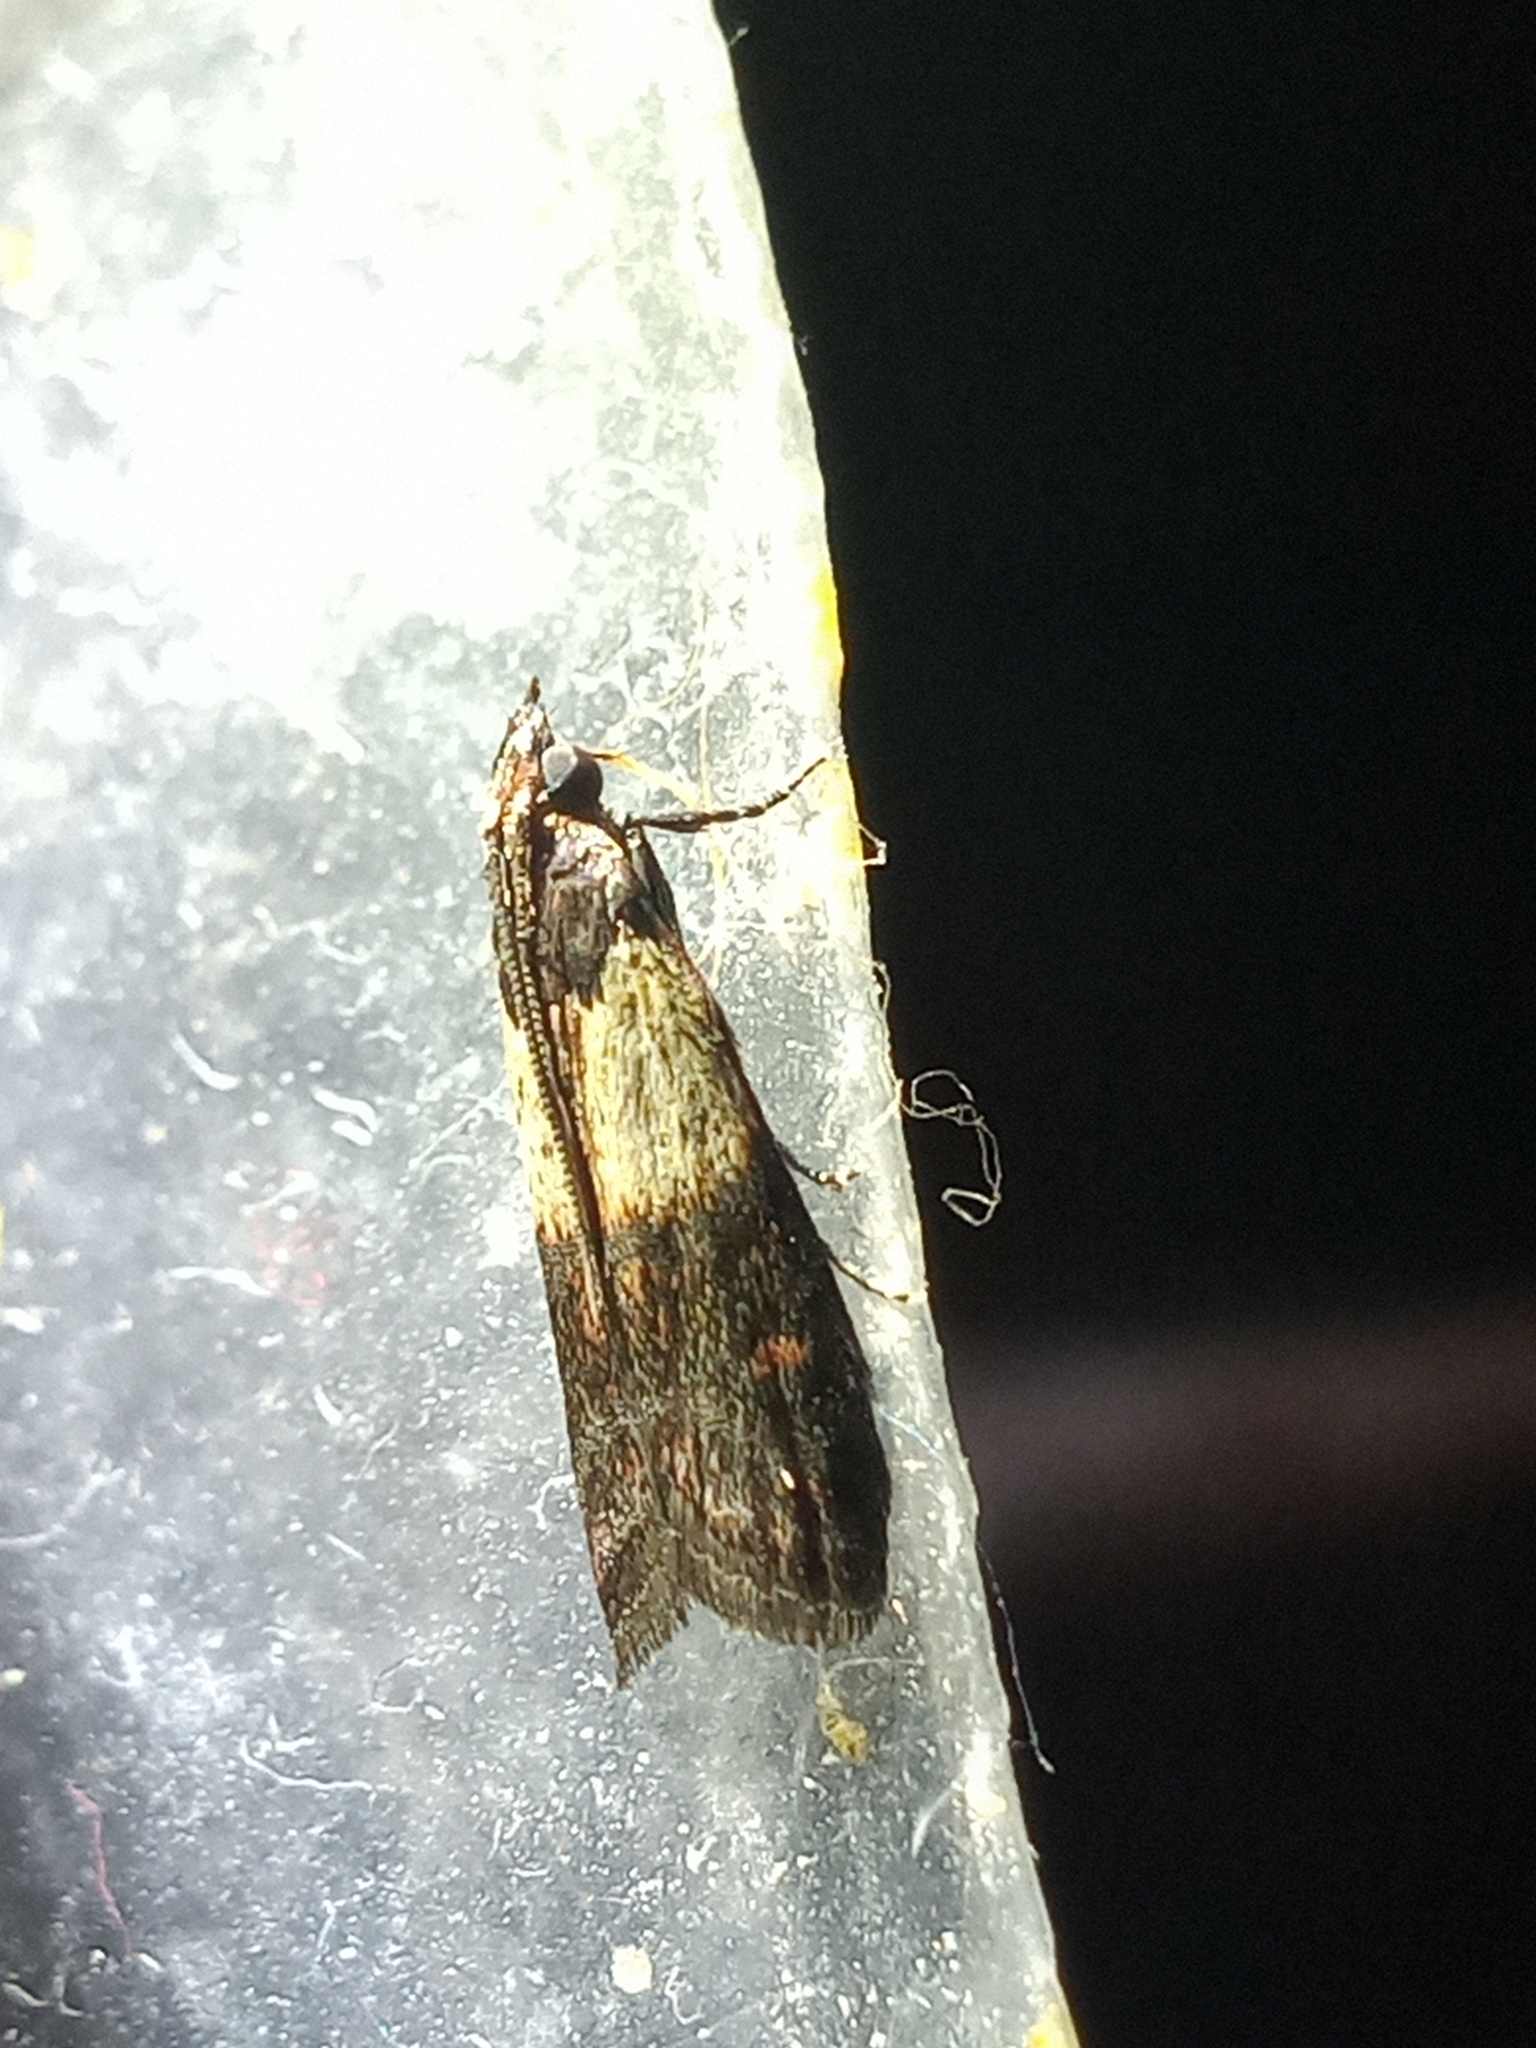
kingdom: Animalia
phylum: Arthropoda
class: Insecta
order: Lepidoptera
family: Pyralidae
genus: Plodia
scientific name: Plodia interpunctella
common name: Indian meal moth
